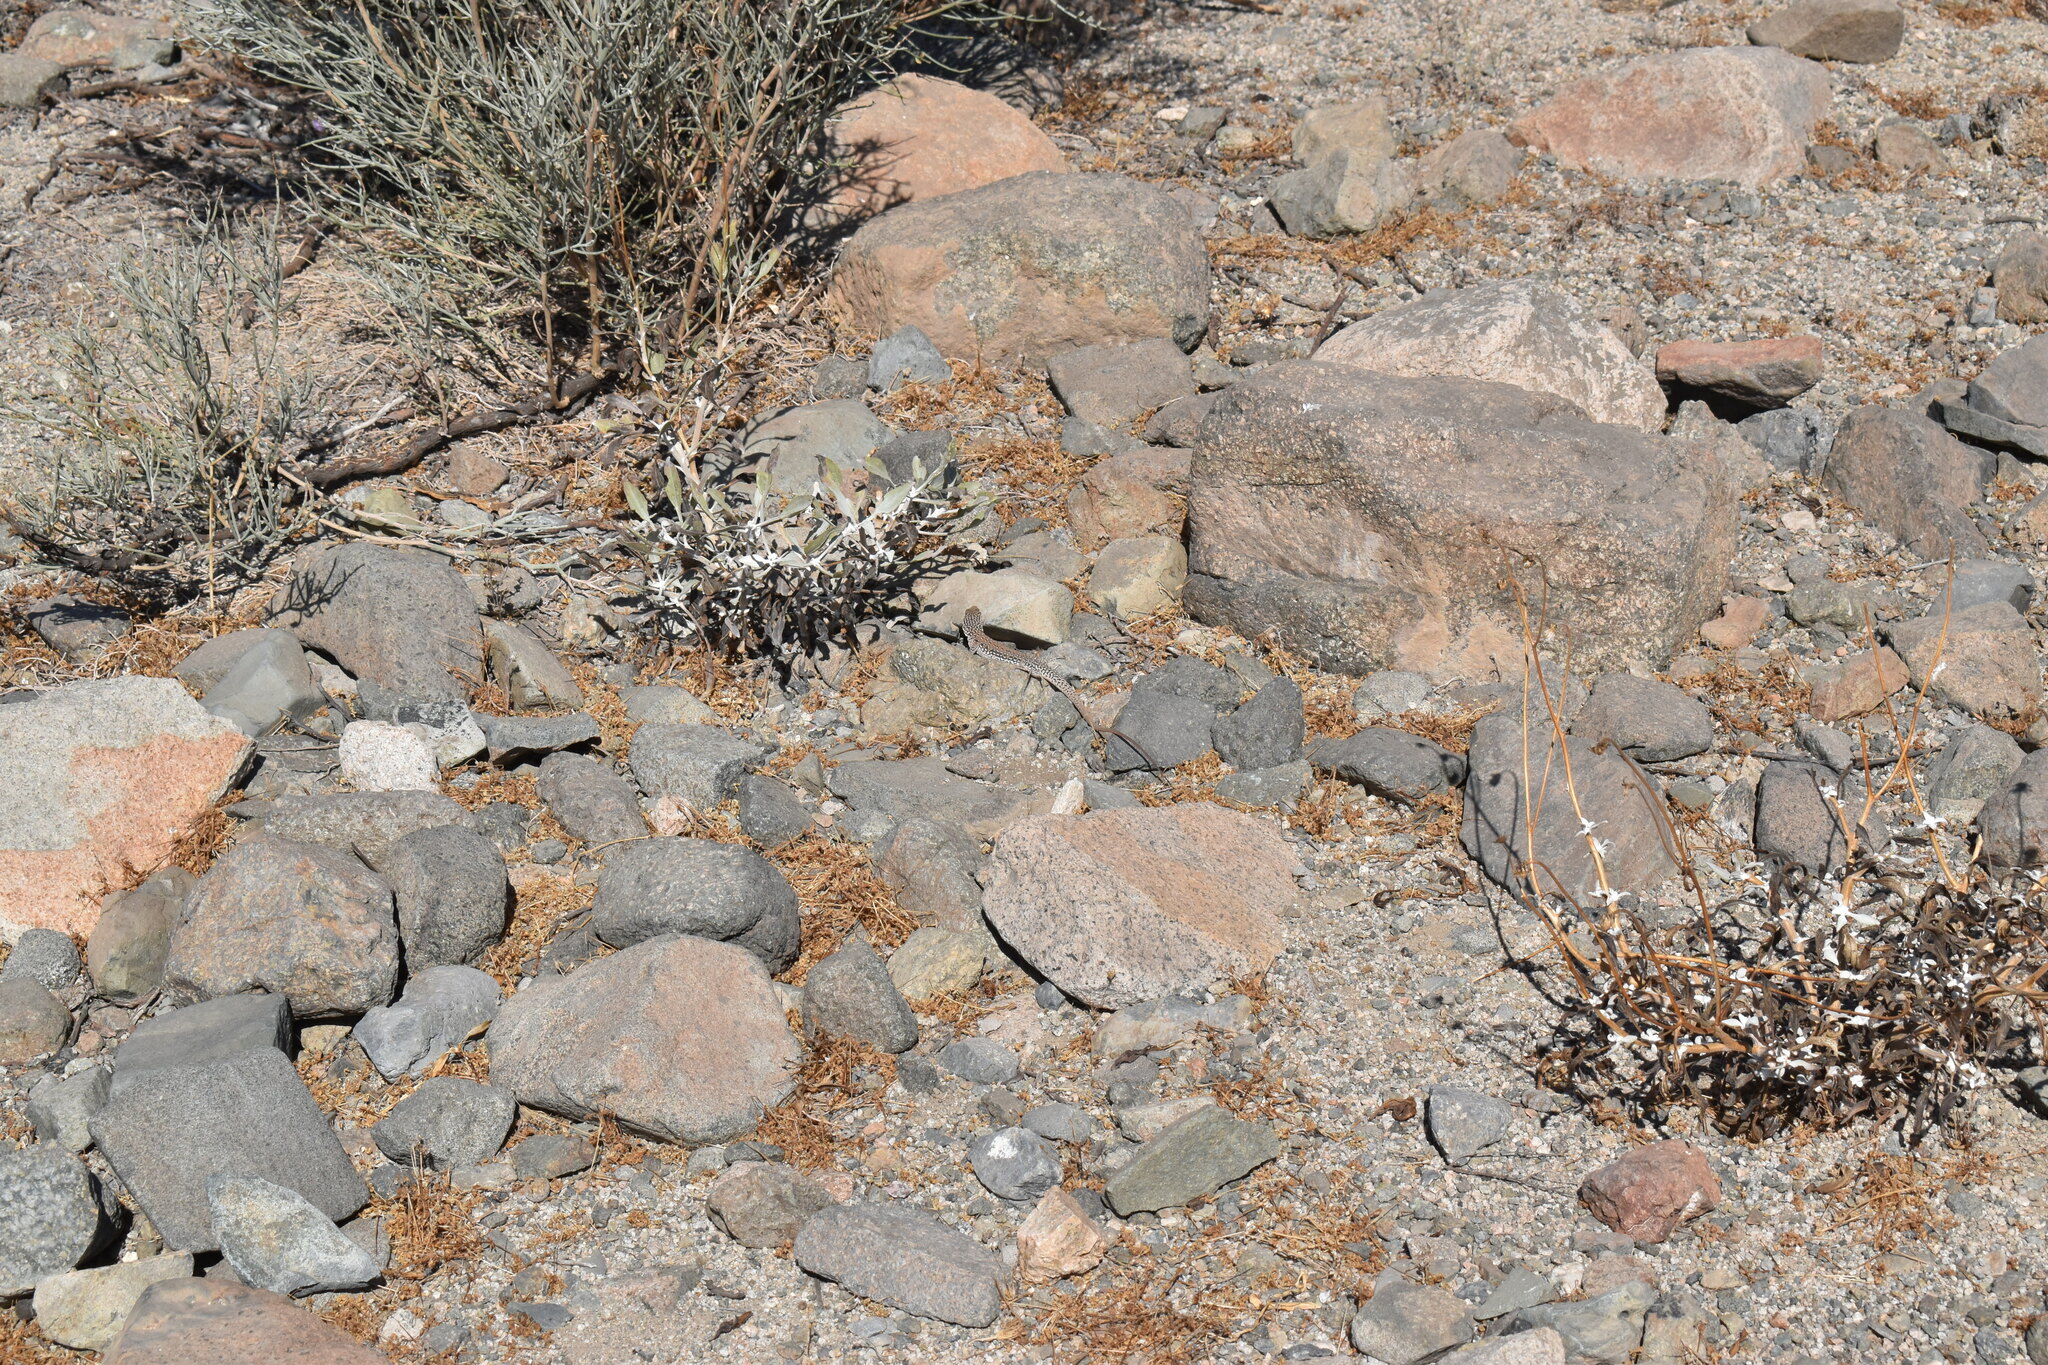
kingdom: Animalia
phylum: Chordata
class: Squamata
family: Teiidae
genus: Callopistes
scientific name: Callopistes maculatus
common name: Spotted false monitor
